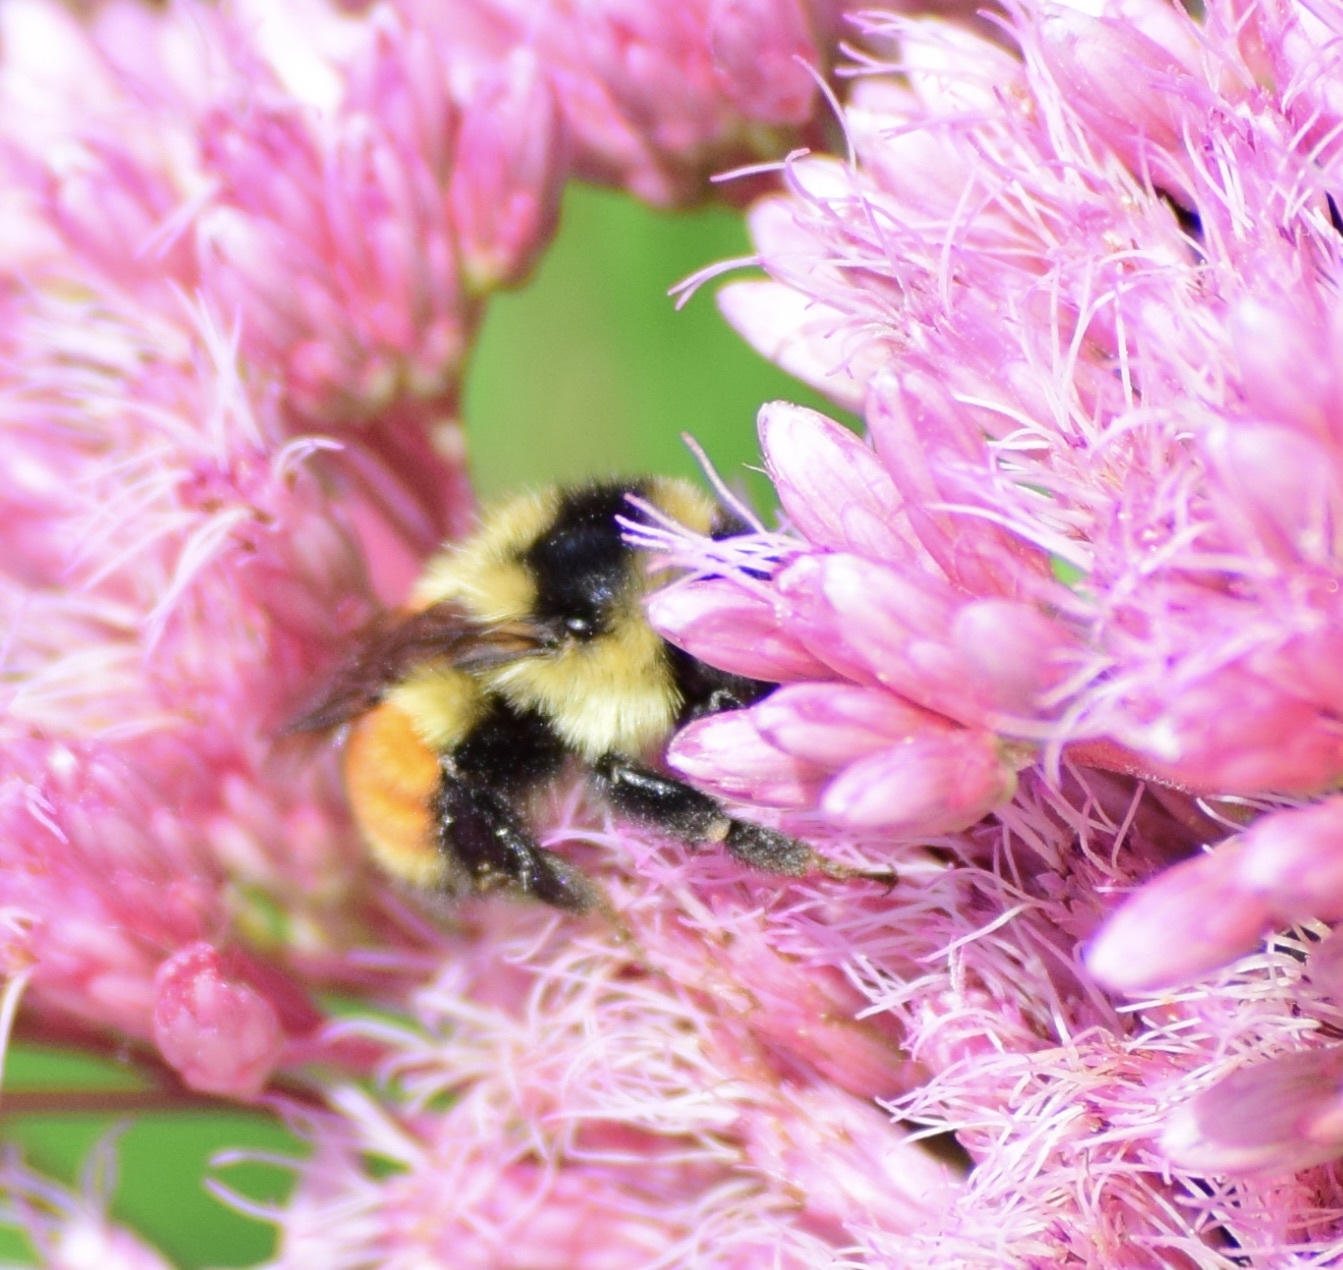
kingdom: Animalia
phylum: Arthropoda
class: Insecta
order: Hymenoptera
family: Apidae
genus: Bombus
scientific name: Bombus ternarius
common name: Tri-colored bumble bee
